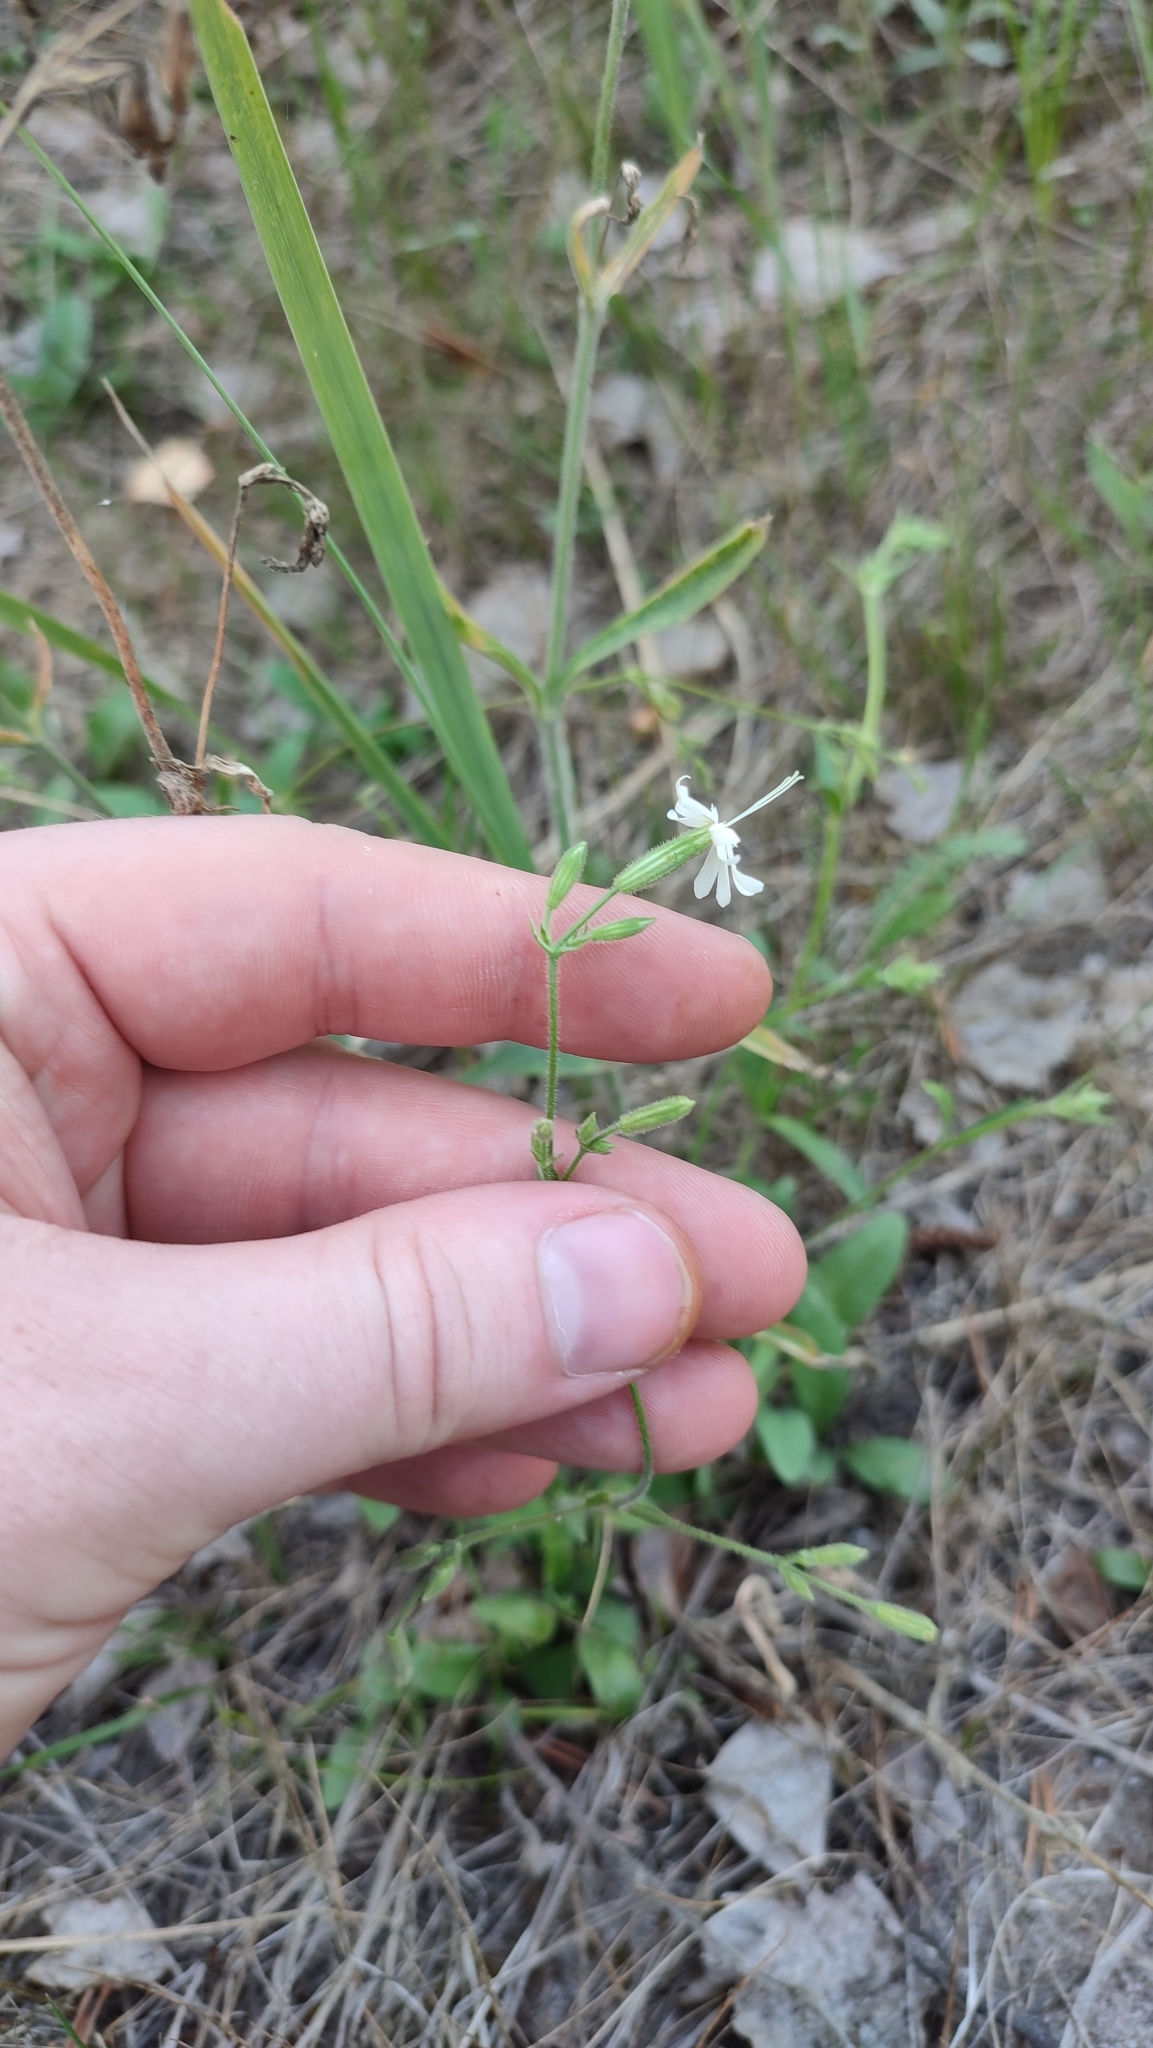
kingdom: Plantae
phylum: Tracheophyta
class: Magnoliopsida
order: Caryophyllales
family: Caryophyllaceae
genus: Silene
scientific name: Silene nutans
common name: Nottingham catchfly
